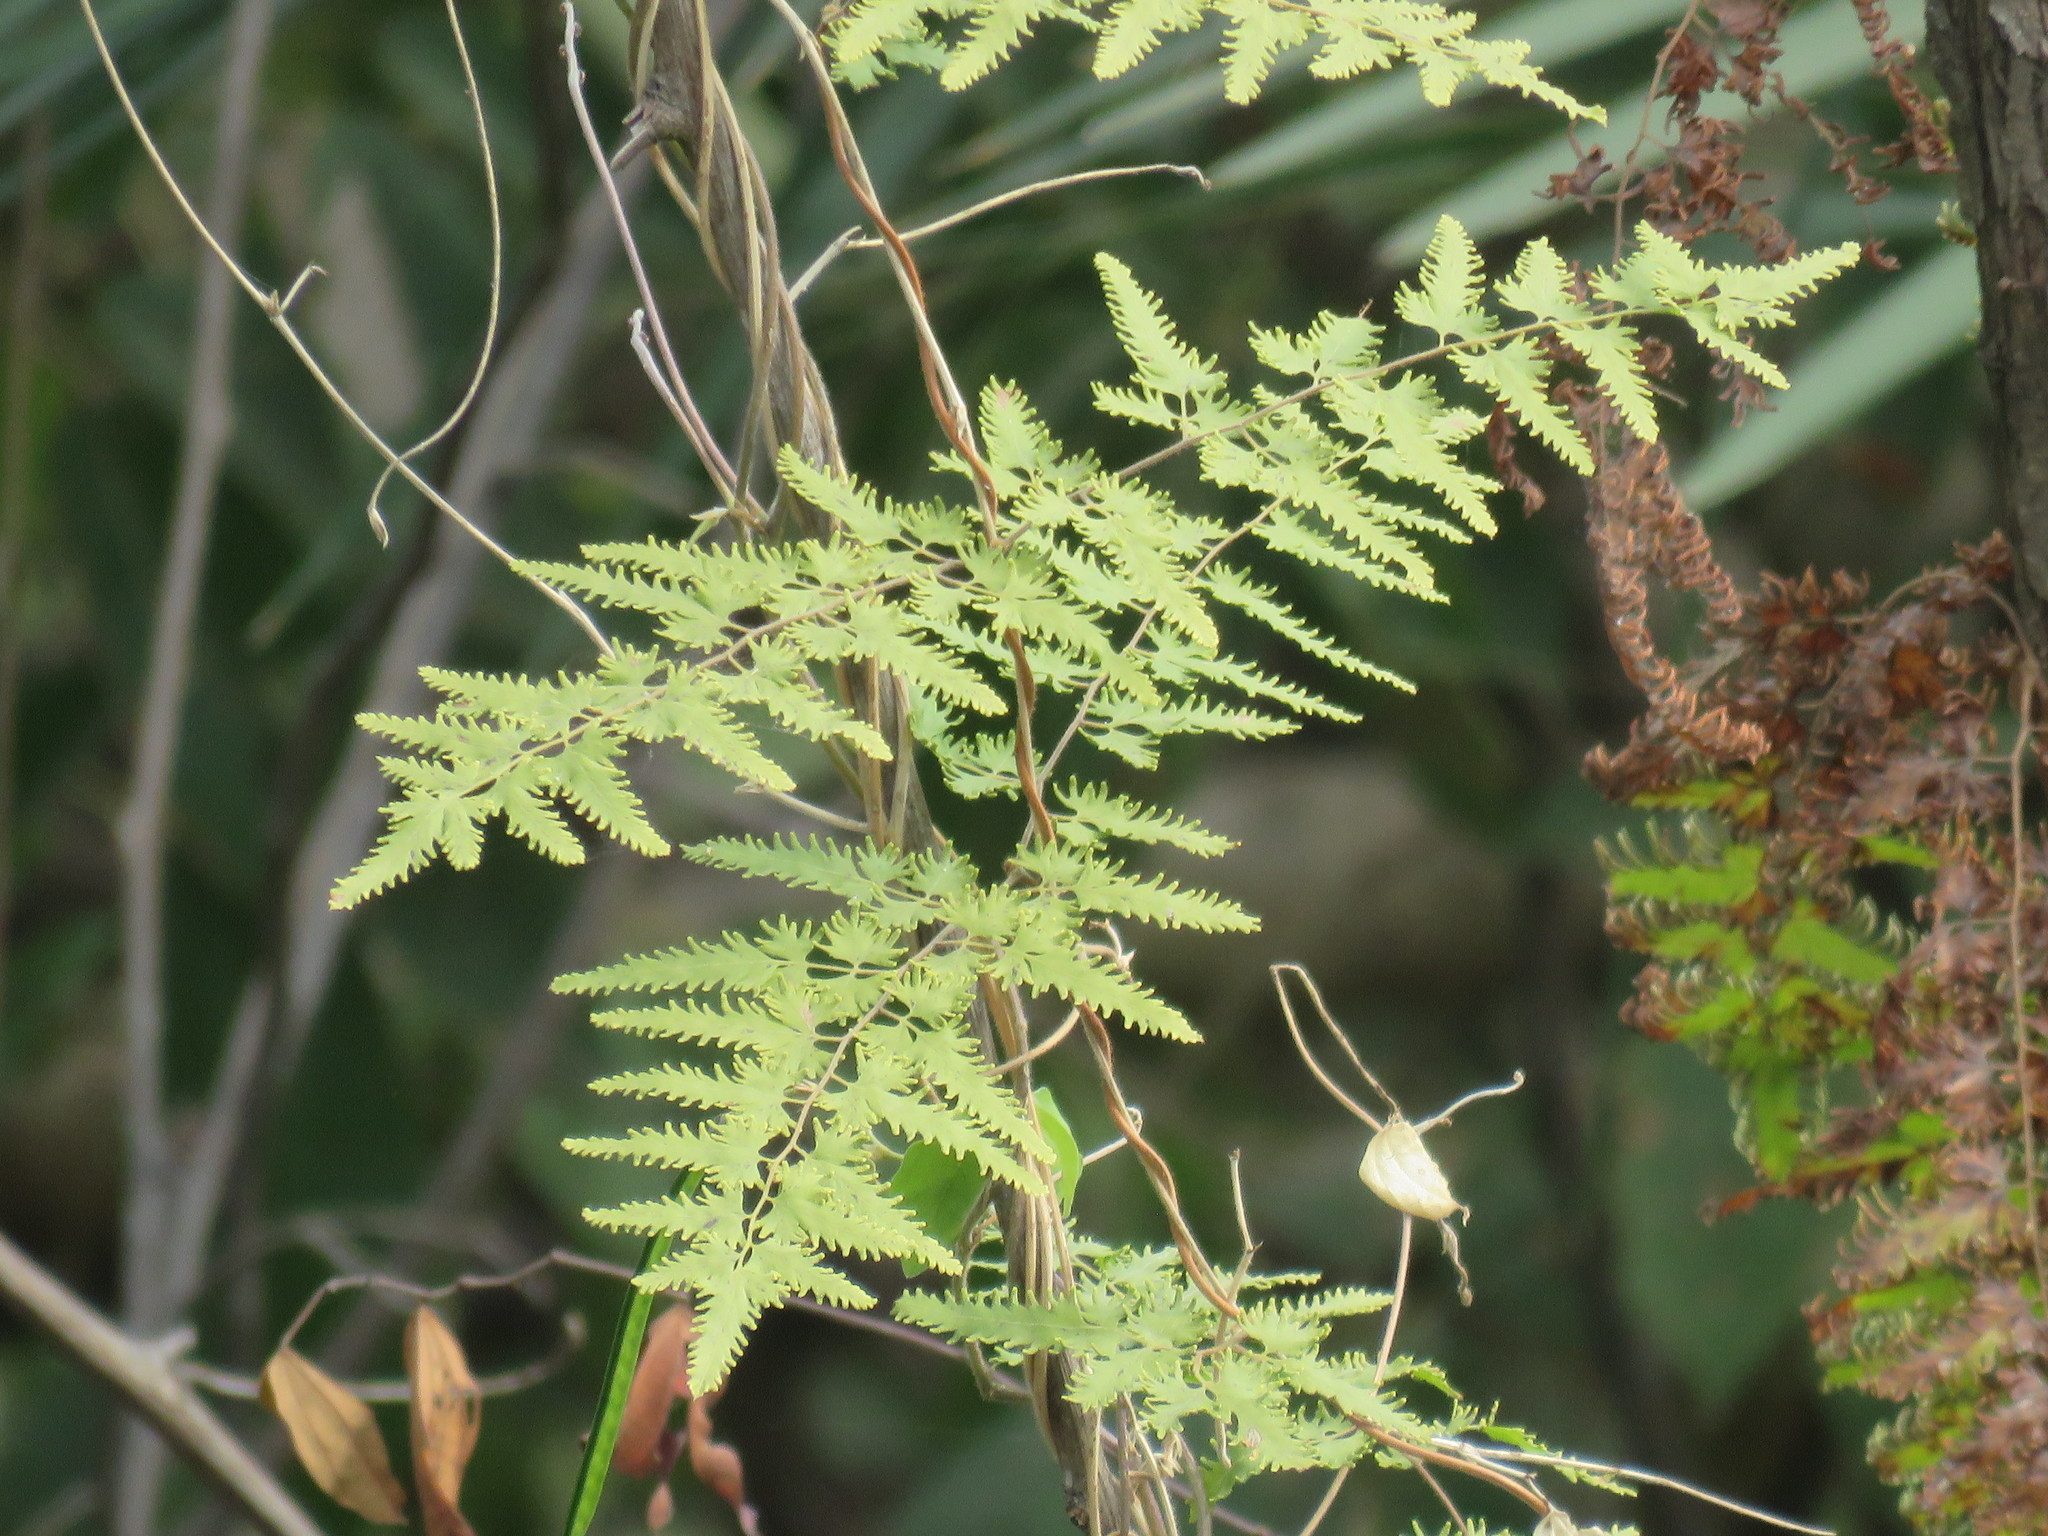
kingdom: Plantae
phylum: Tracheophyta
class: Polypodiopsida
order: Schizaeales
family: Lygodiaceae
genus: Lygodium
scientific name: Lygodium venustum
